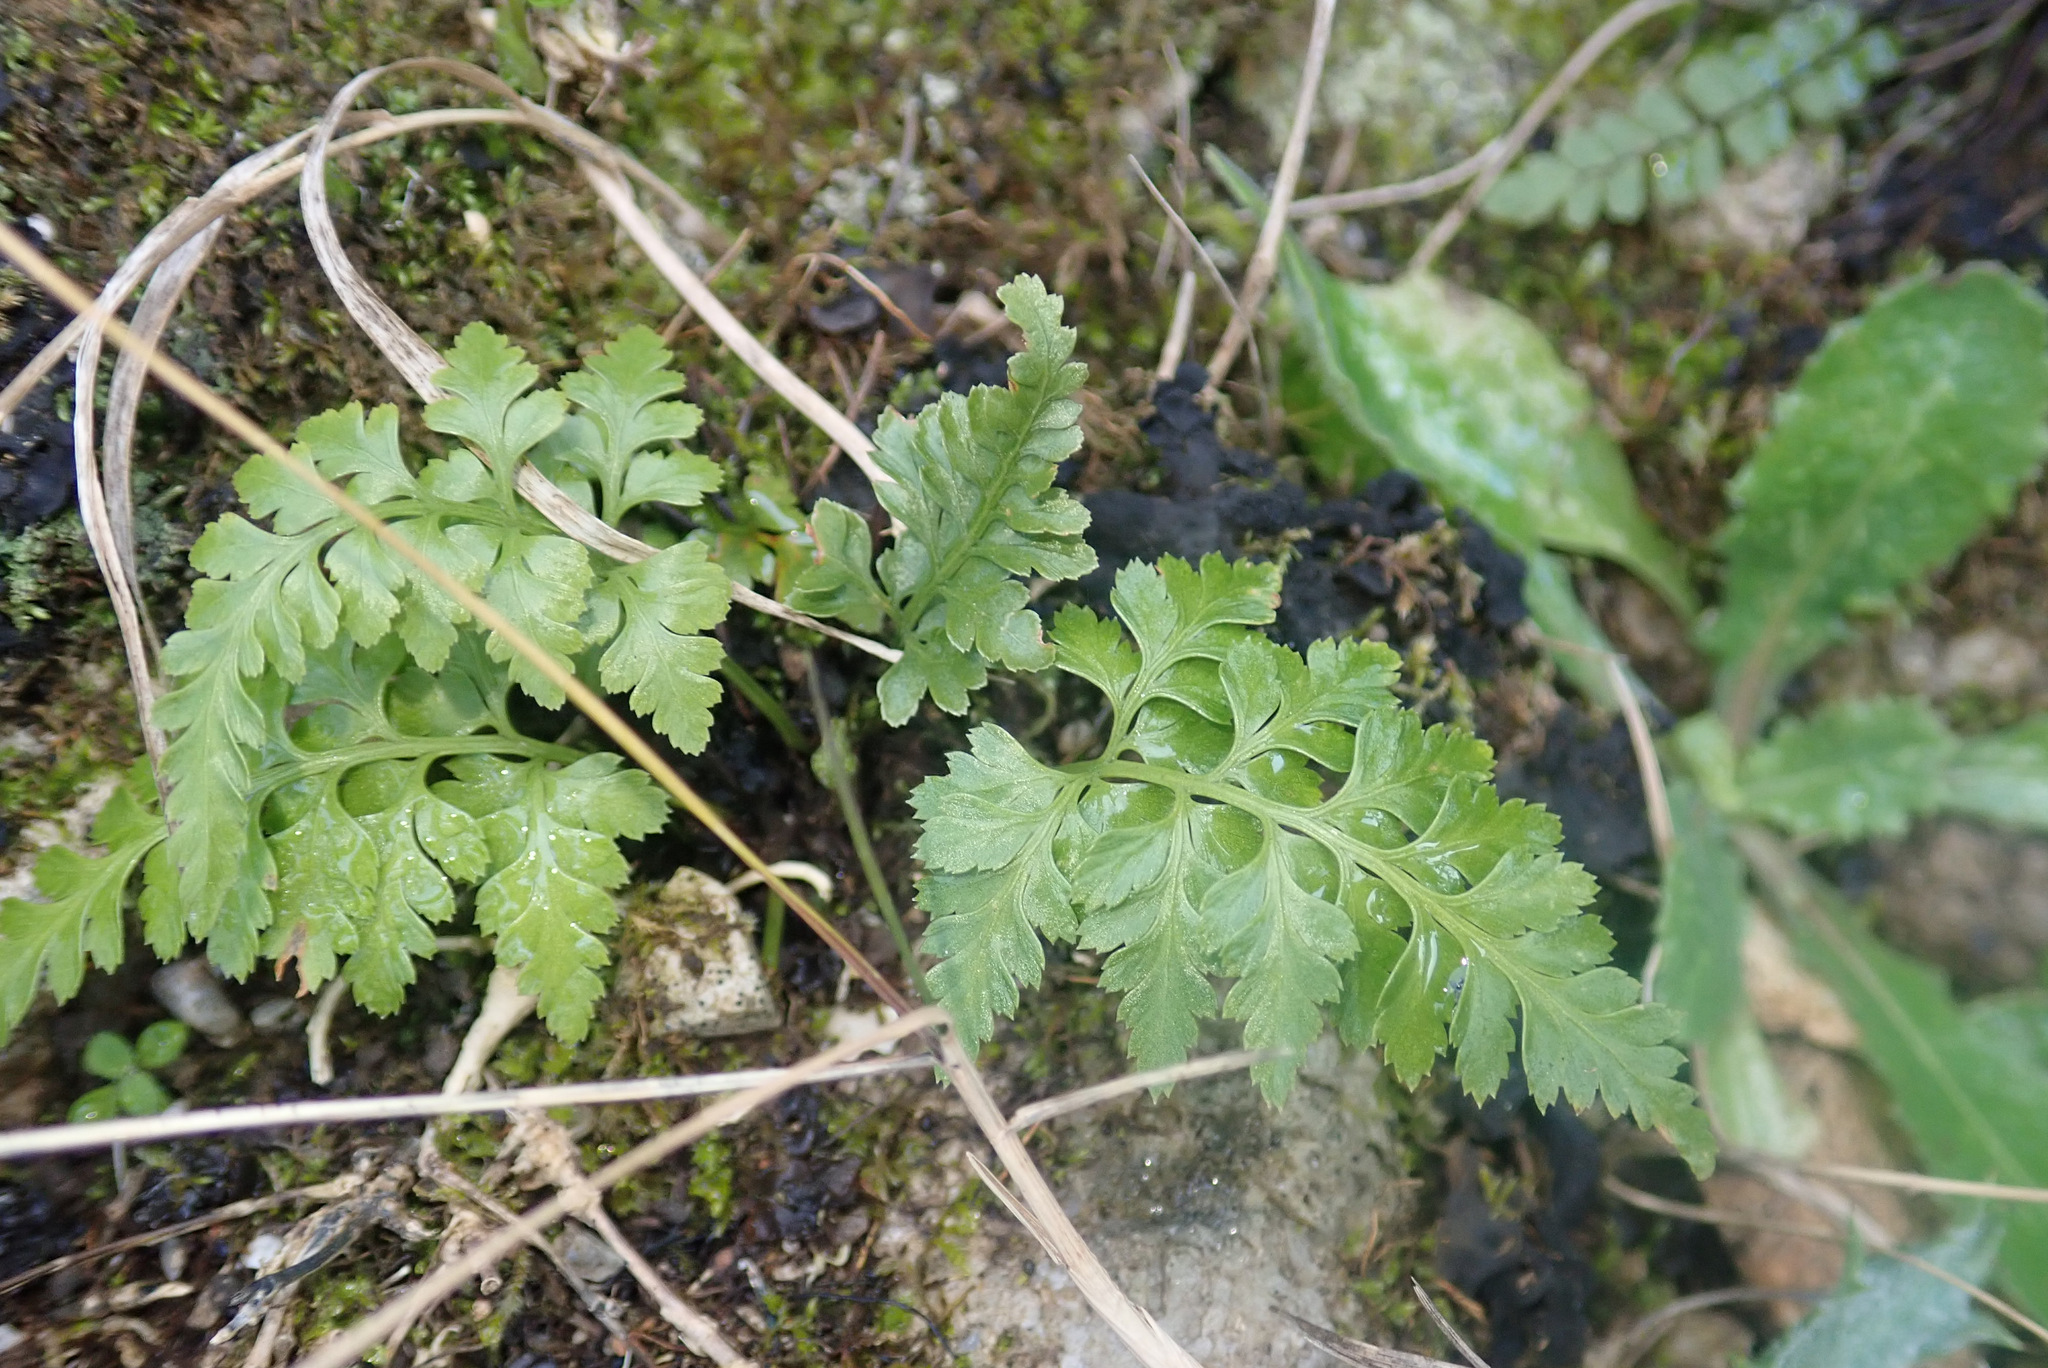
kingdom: Plantae
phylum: Tracheophyta
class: Polypodiopsida
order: Polypodiales
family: Aspleniaceae
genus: Asplenium
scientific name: Asplenium adiantum-nigrum
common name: Black spleenwort
